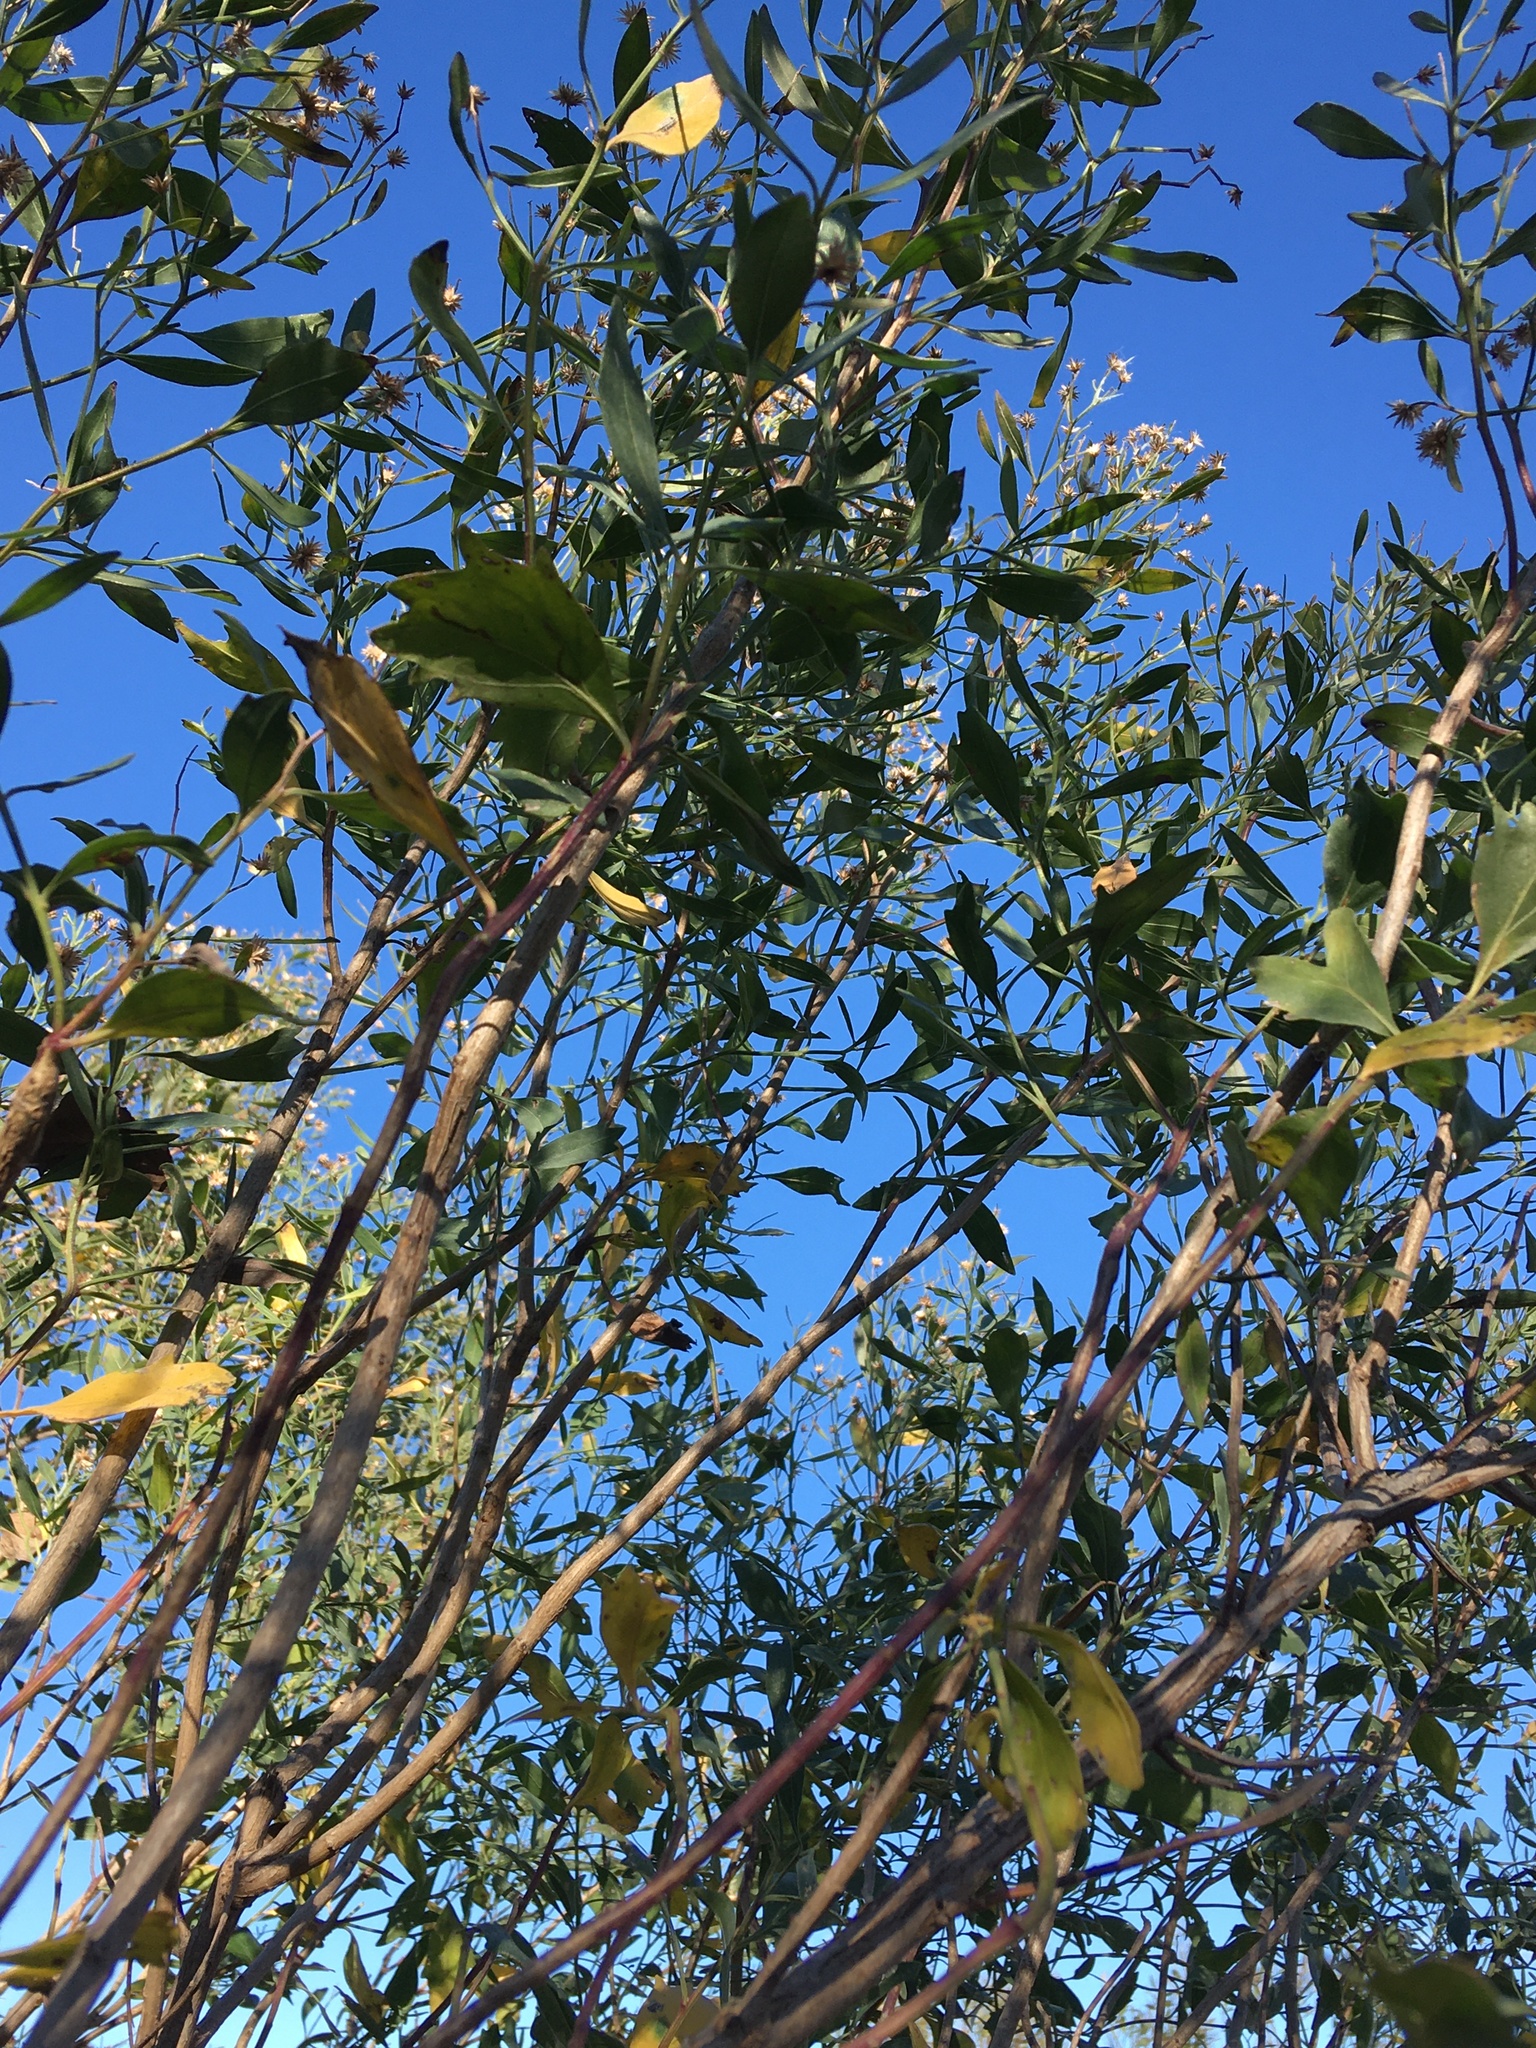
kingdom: Plantae
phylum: Tracheophyta
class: Magnoliopsida
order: Asterales
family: Asteraceae
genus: Baccharis
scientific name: Baccharis halimifolia
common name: Eastern baccharis
